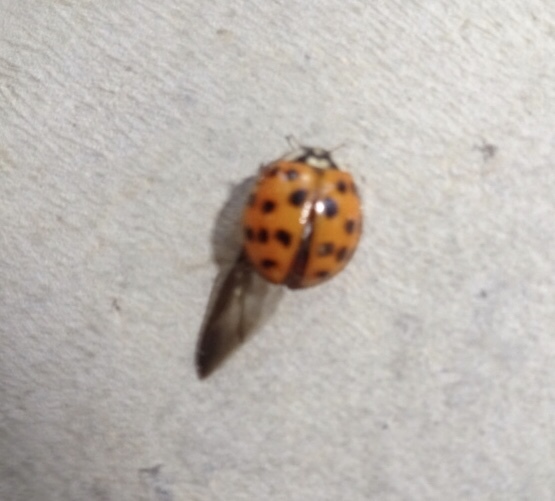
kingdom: Animalia
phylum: Arthropoda
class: Insecta
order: Coleoptera
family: Coccinellidae
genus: Harmonia
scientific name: Harmonia axyridis
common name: Harlequin ladybird
